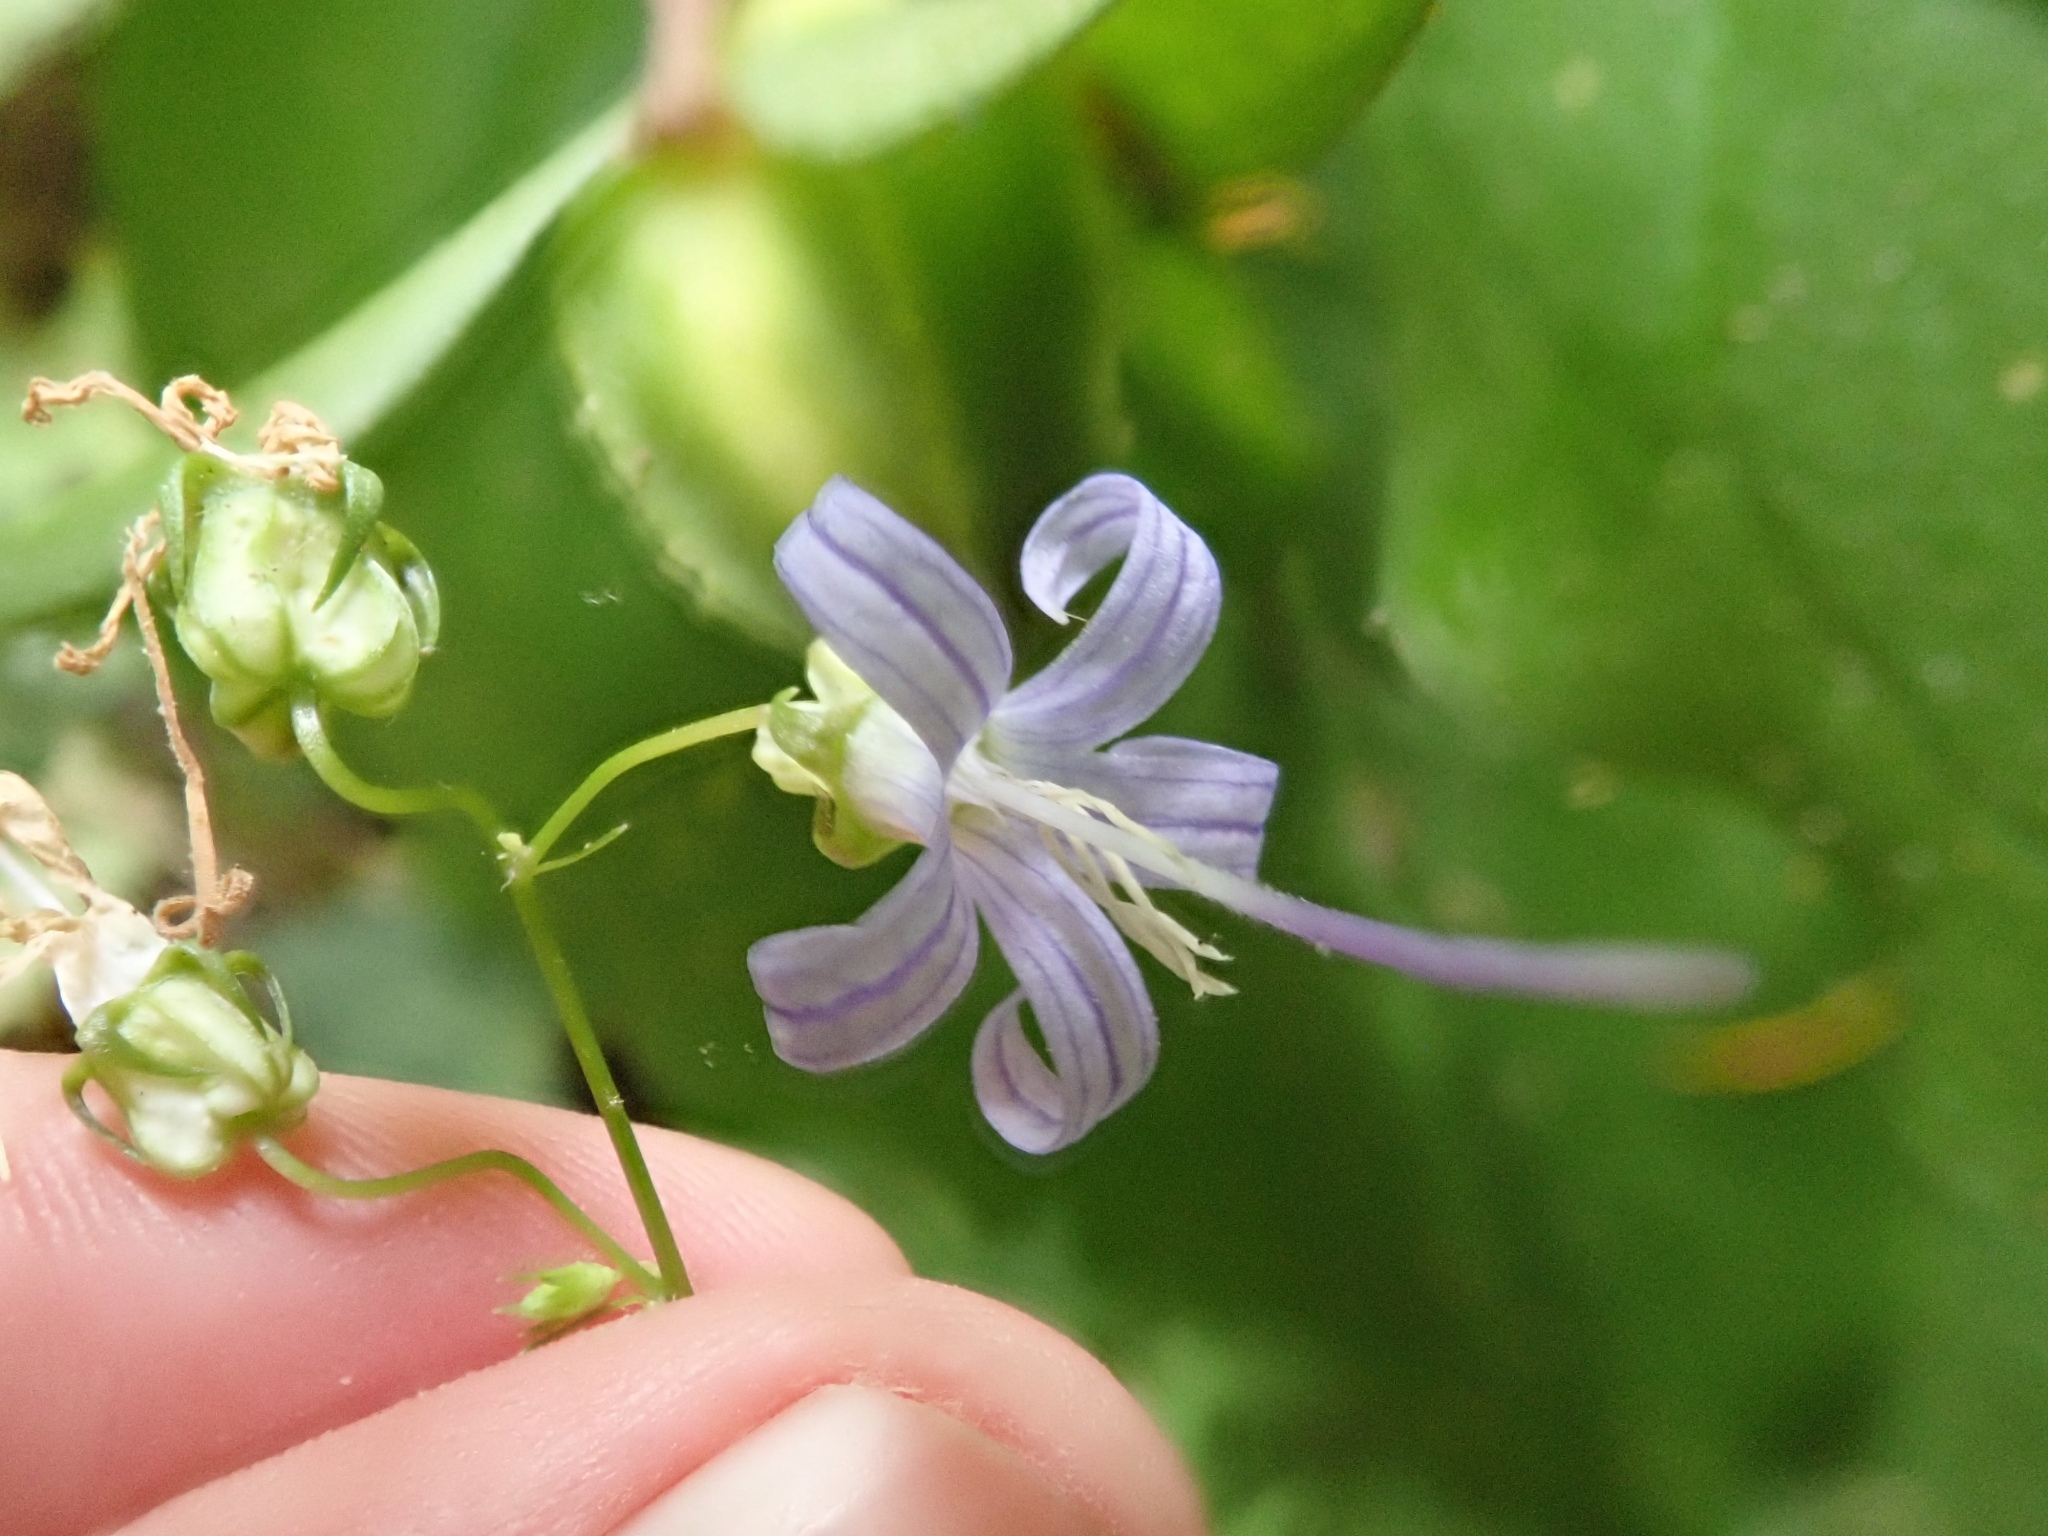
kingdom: Plantae
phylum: Tracheophyta
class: Magnoliopsida
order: Asterales
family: Campanulaceae
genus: Smithiastrum
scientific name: Smithiastrum prenanthoides
